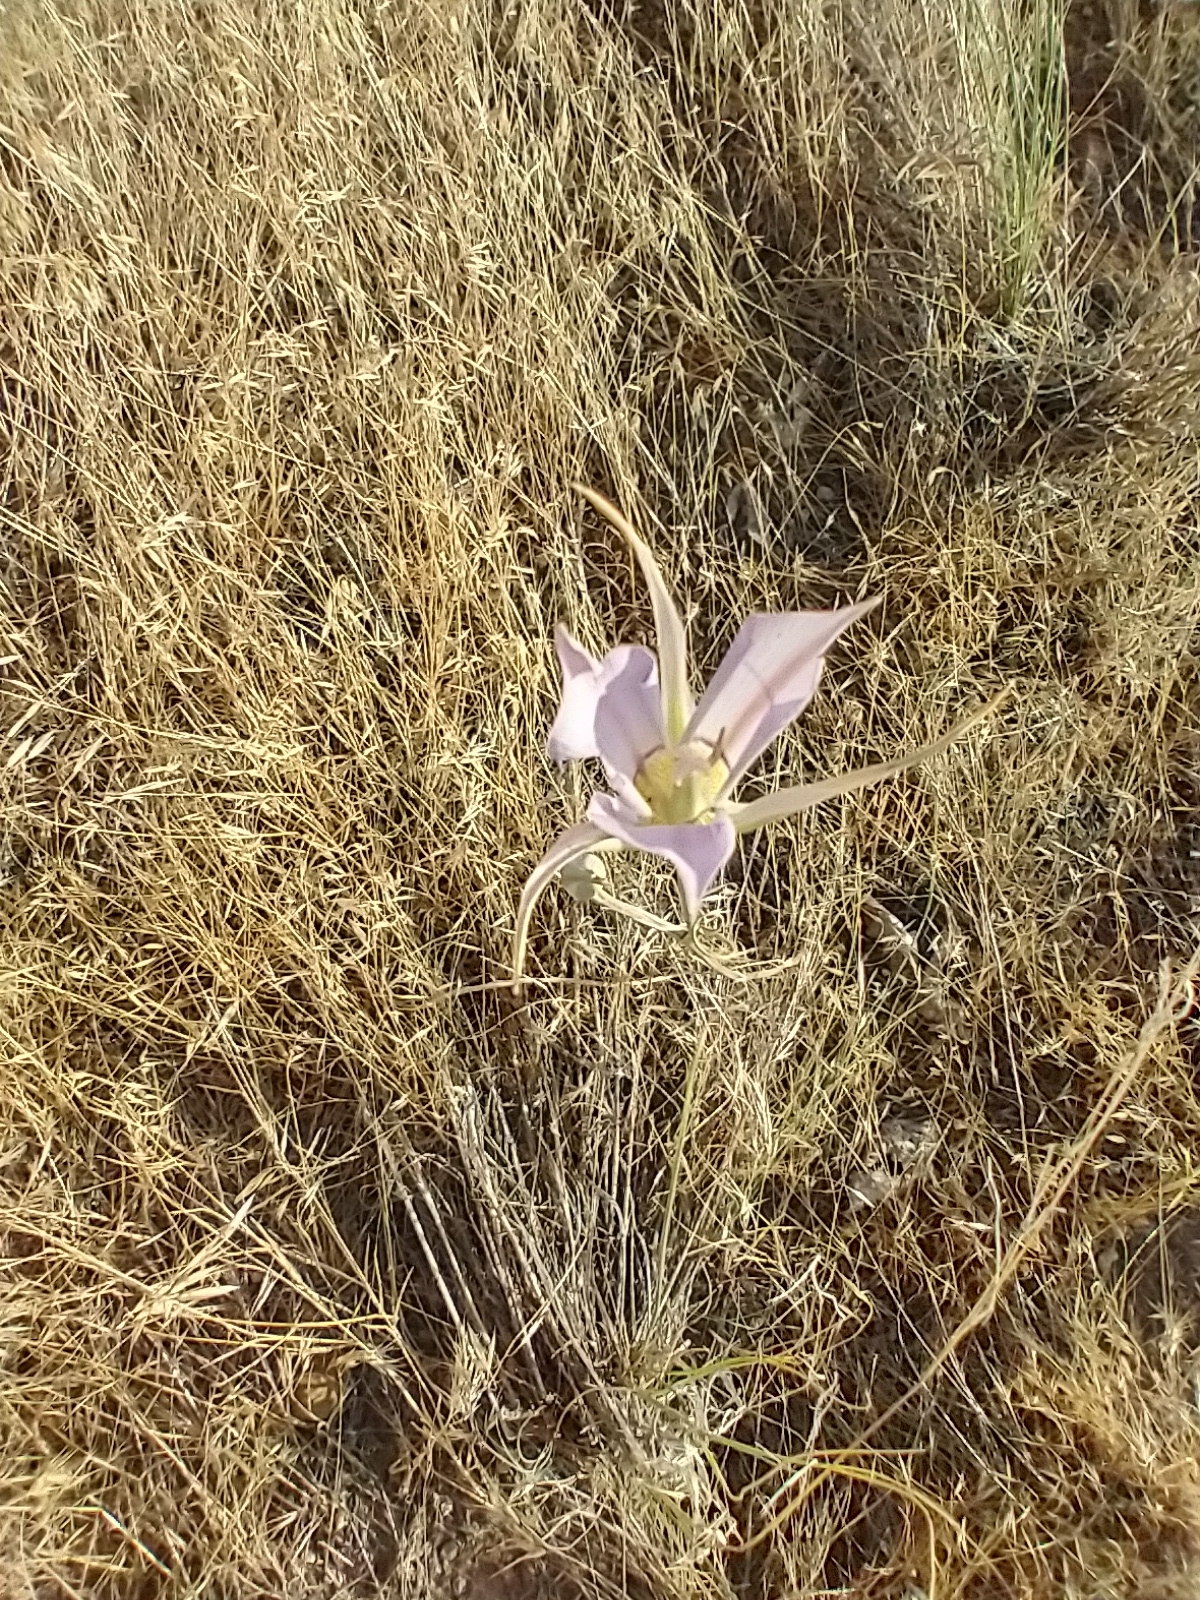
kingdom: Plantae
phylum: Tracheophyta
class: Liliopsida
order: Liliales
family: Liliaceae
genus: Calochortus
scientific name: Calochortus macrocarpus
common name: Green-band mariposa lily
